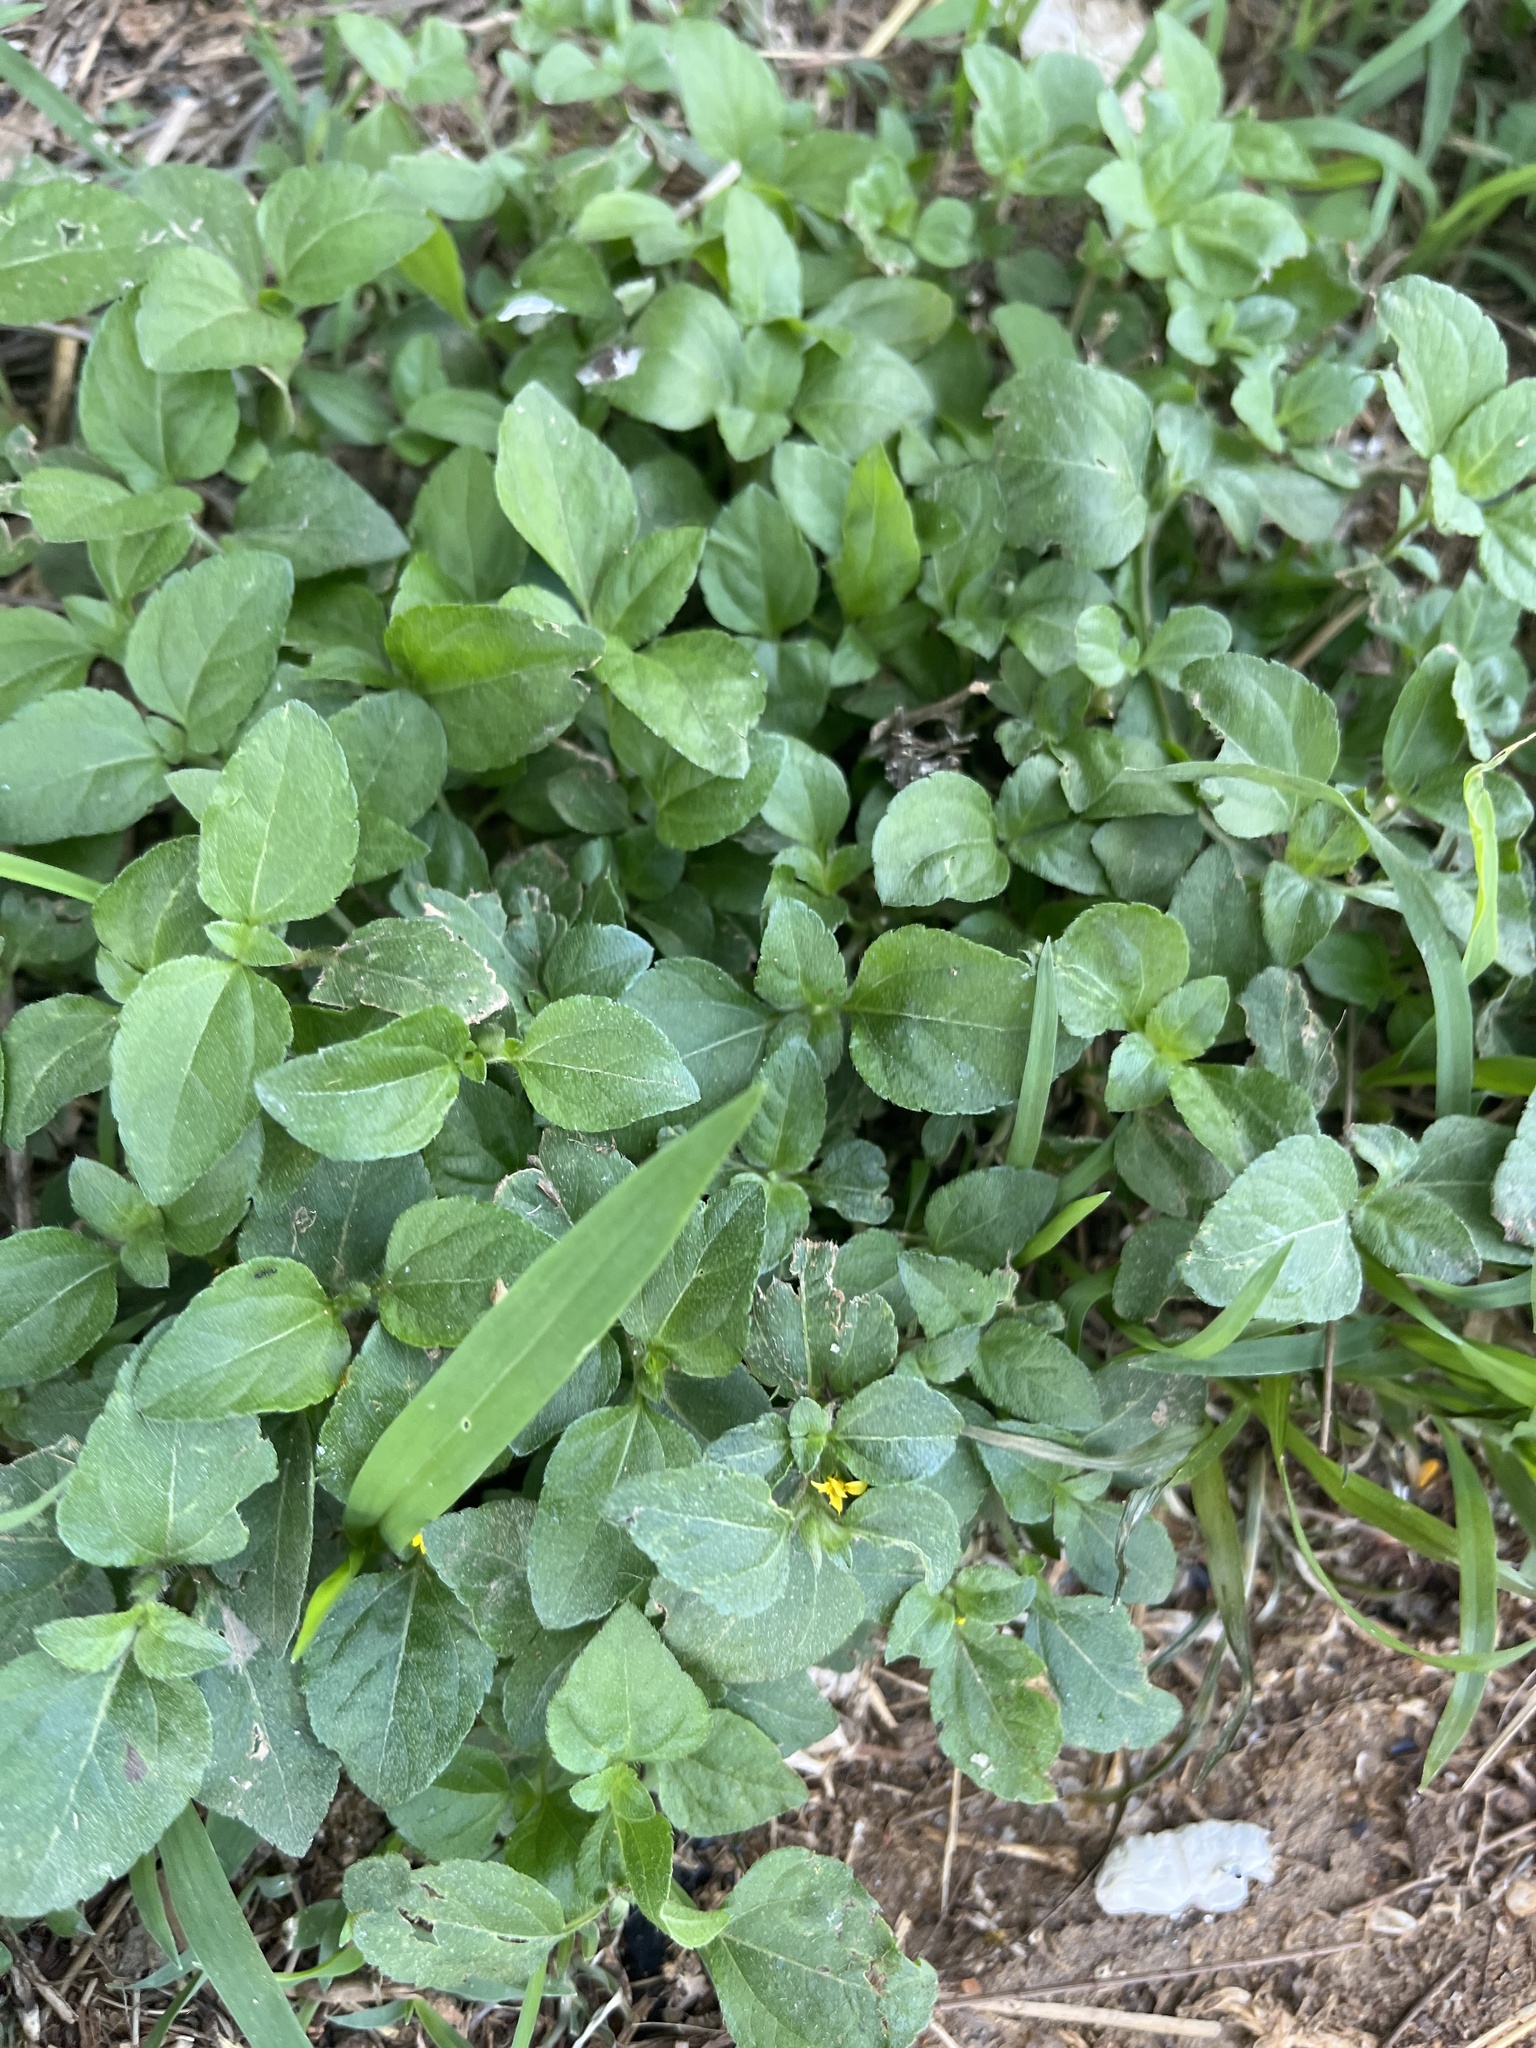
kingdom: Plantae
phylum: Tracheophyta
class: Magnoliopsida
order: Asterales
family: Asteraceae
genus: Calyptocarpus
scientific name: Calyptocarpus vialis
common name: Straggler daisy
